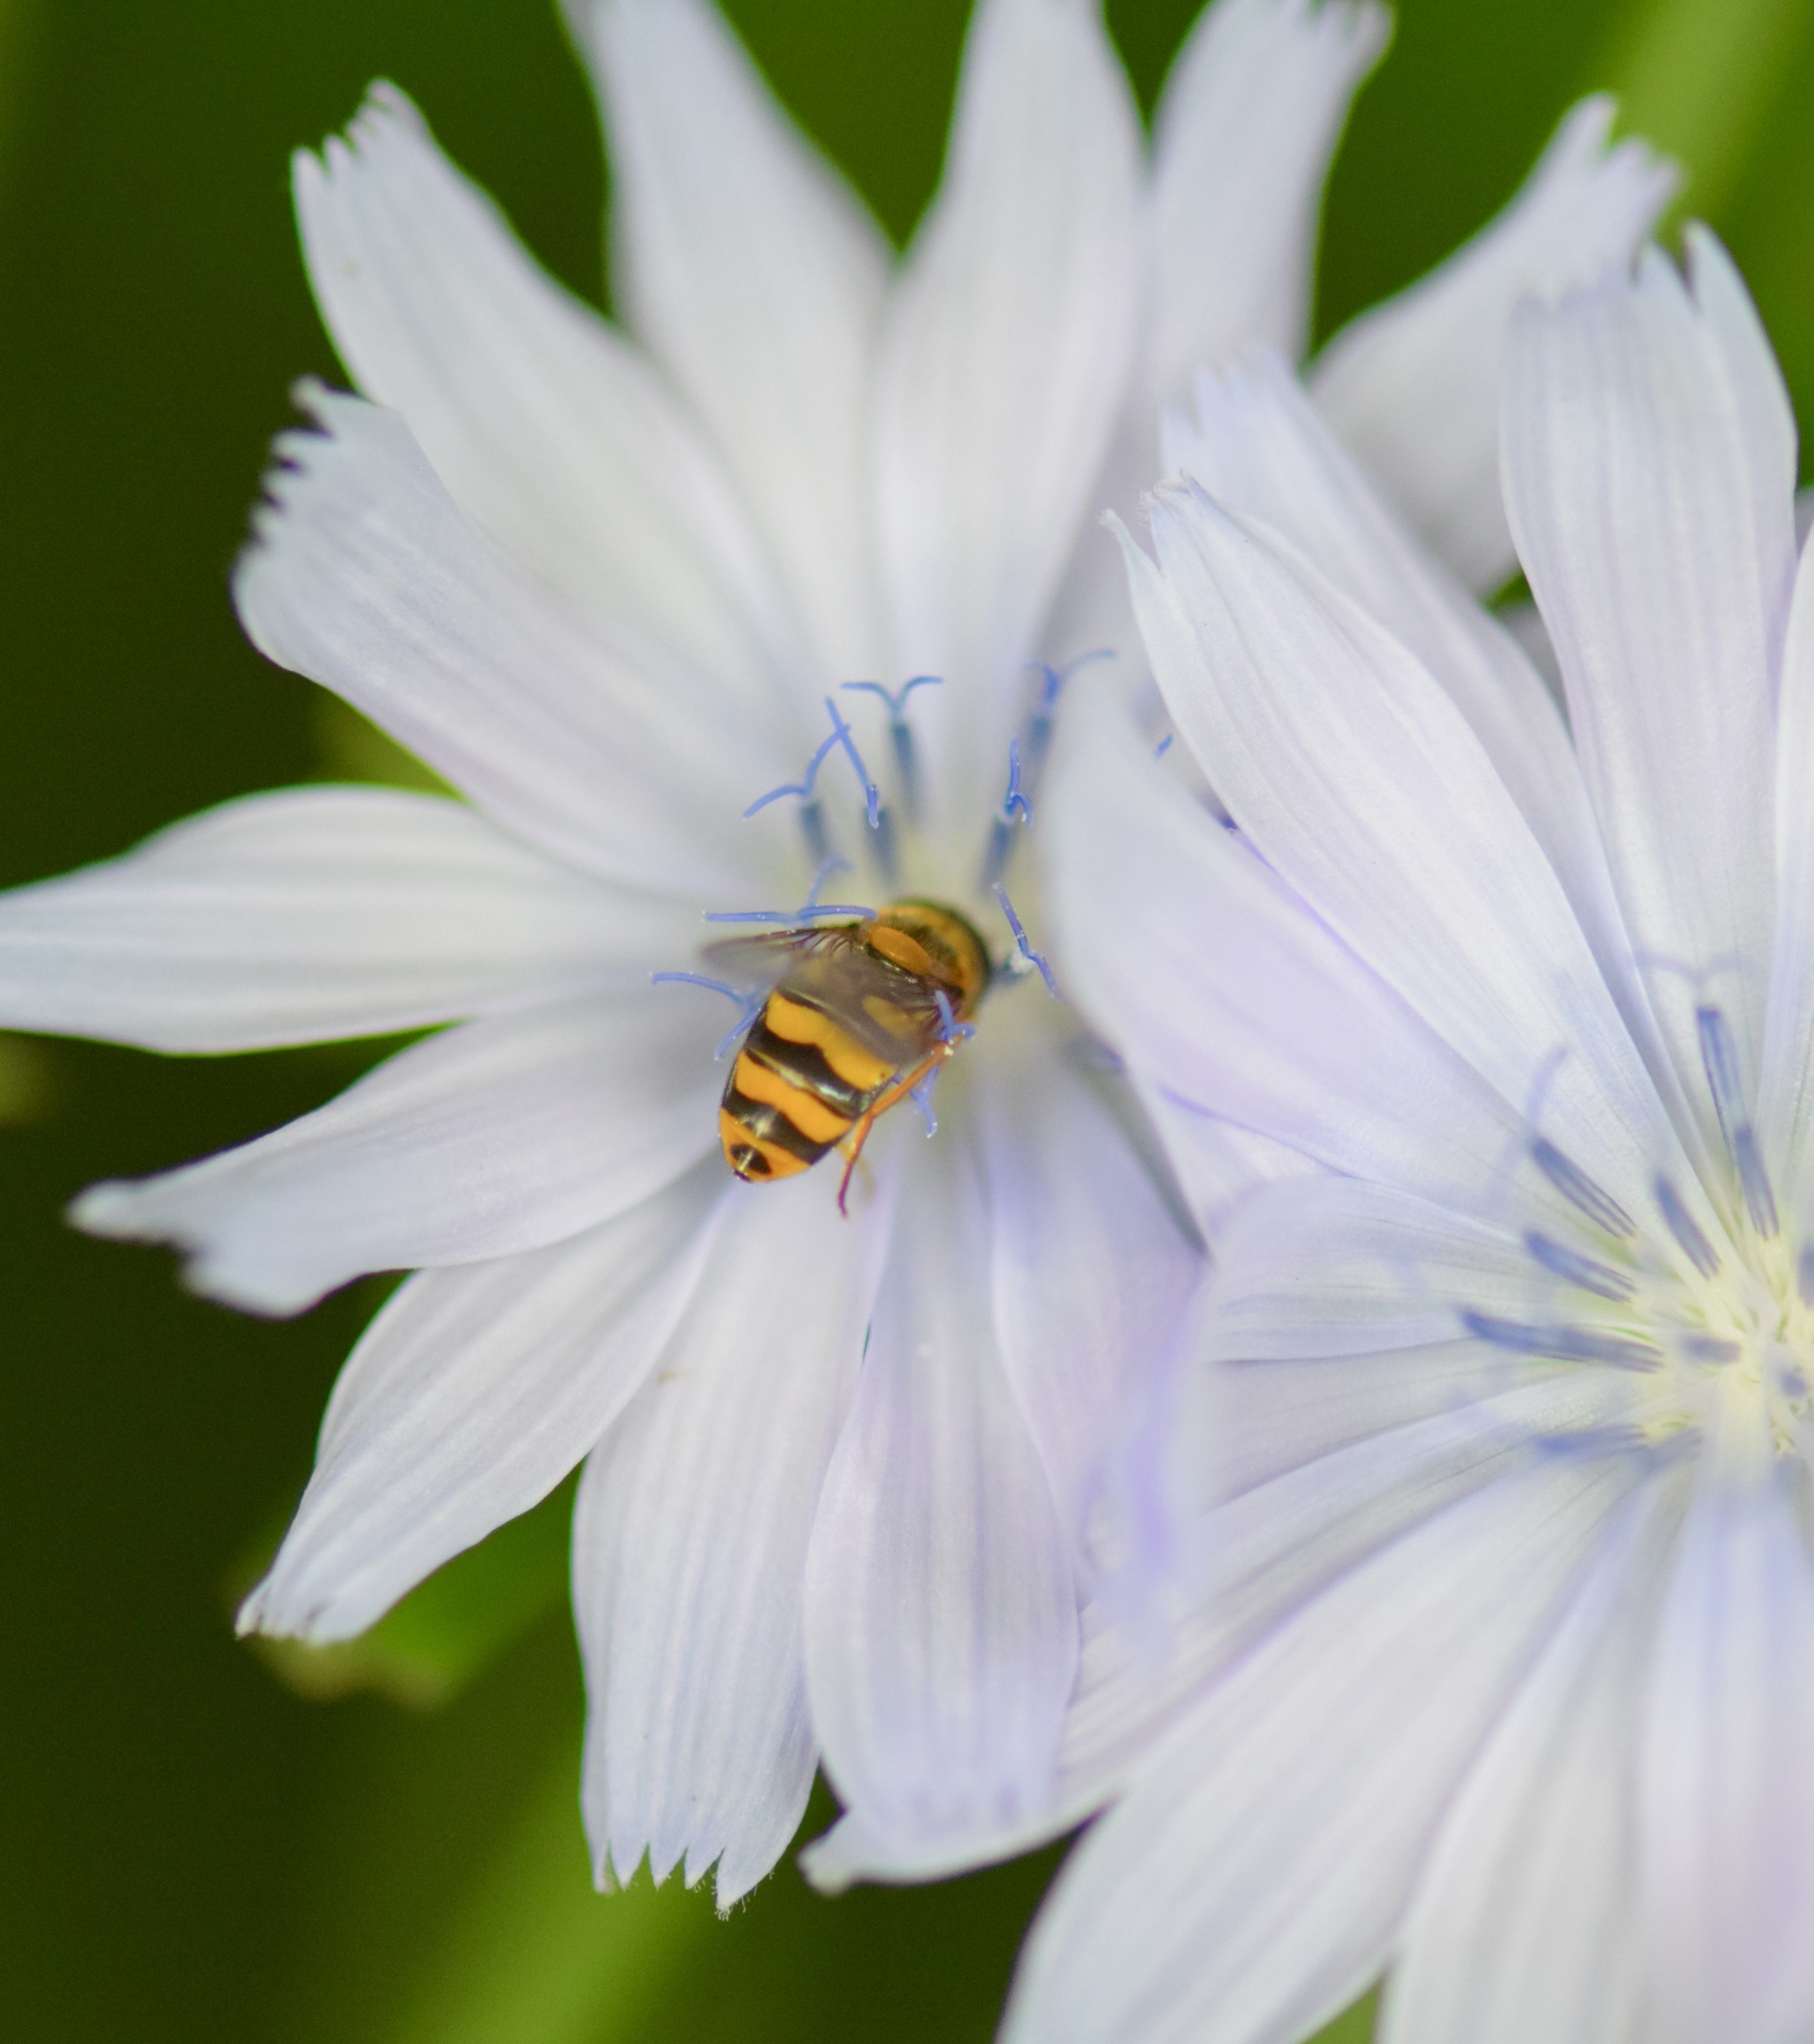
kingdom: Animalia
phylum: Arthropoda
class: Insecta
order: Diptera
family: Syrphidae
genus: Eupeodes
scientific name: Eupeodes latifasciatus
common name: Variable aphideater
